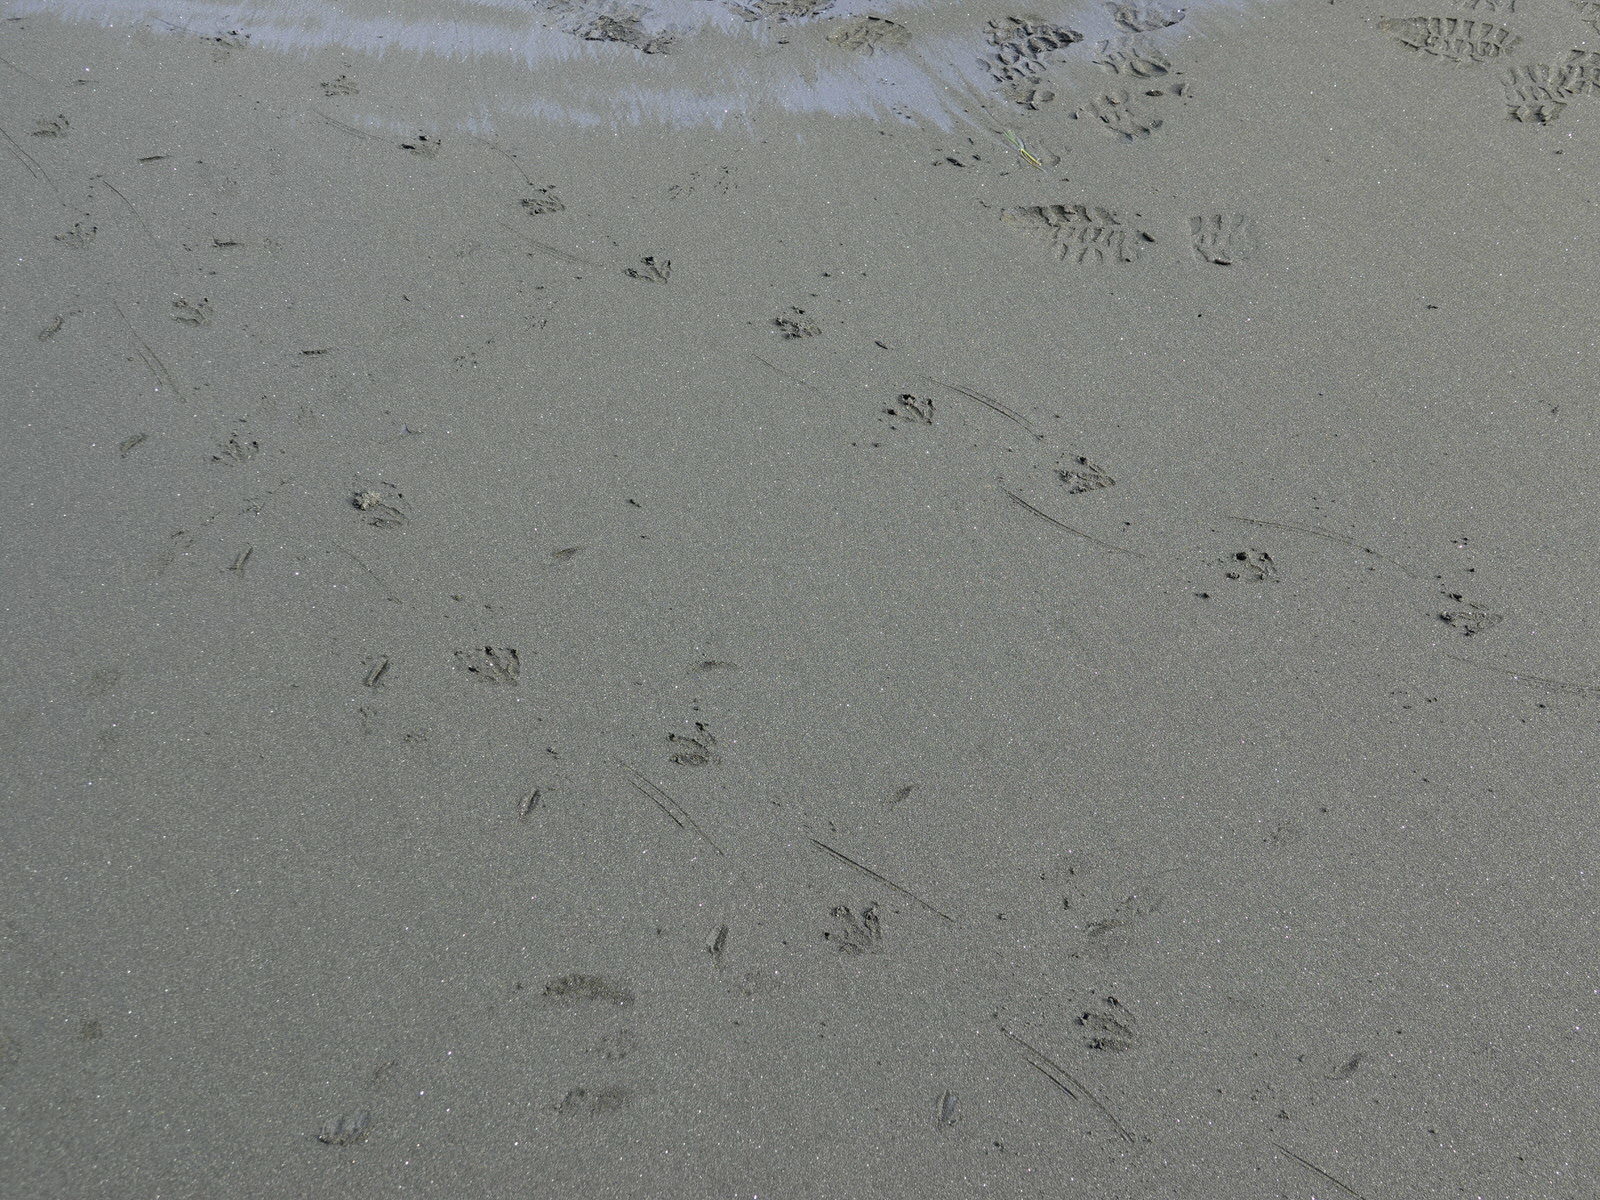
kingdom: Animalia
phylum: Chordata
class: Aves
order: Sphenisciformes
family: Spheniscidae
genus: Eudyptula
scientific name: Eudyptula minor
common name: Little penguin
